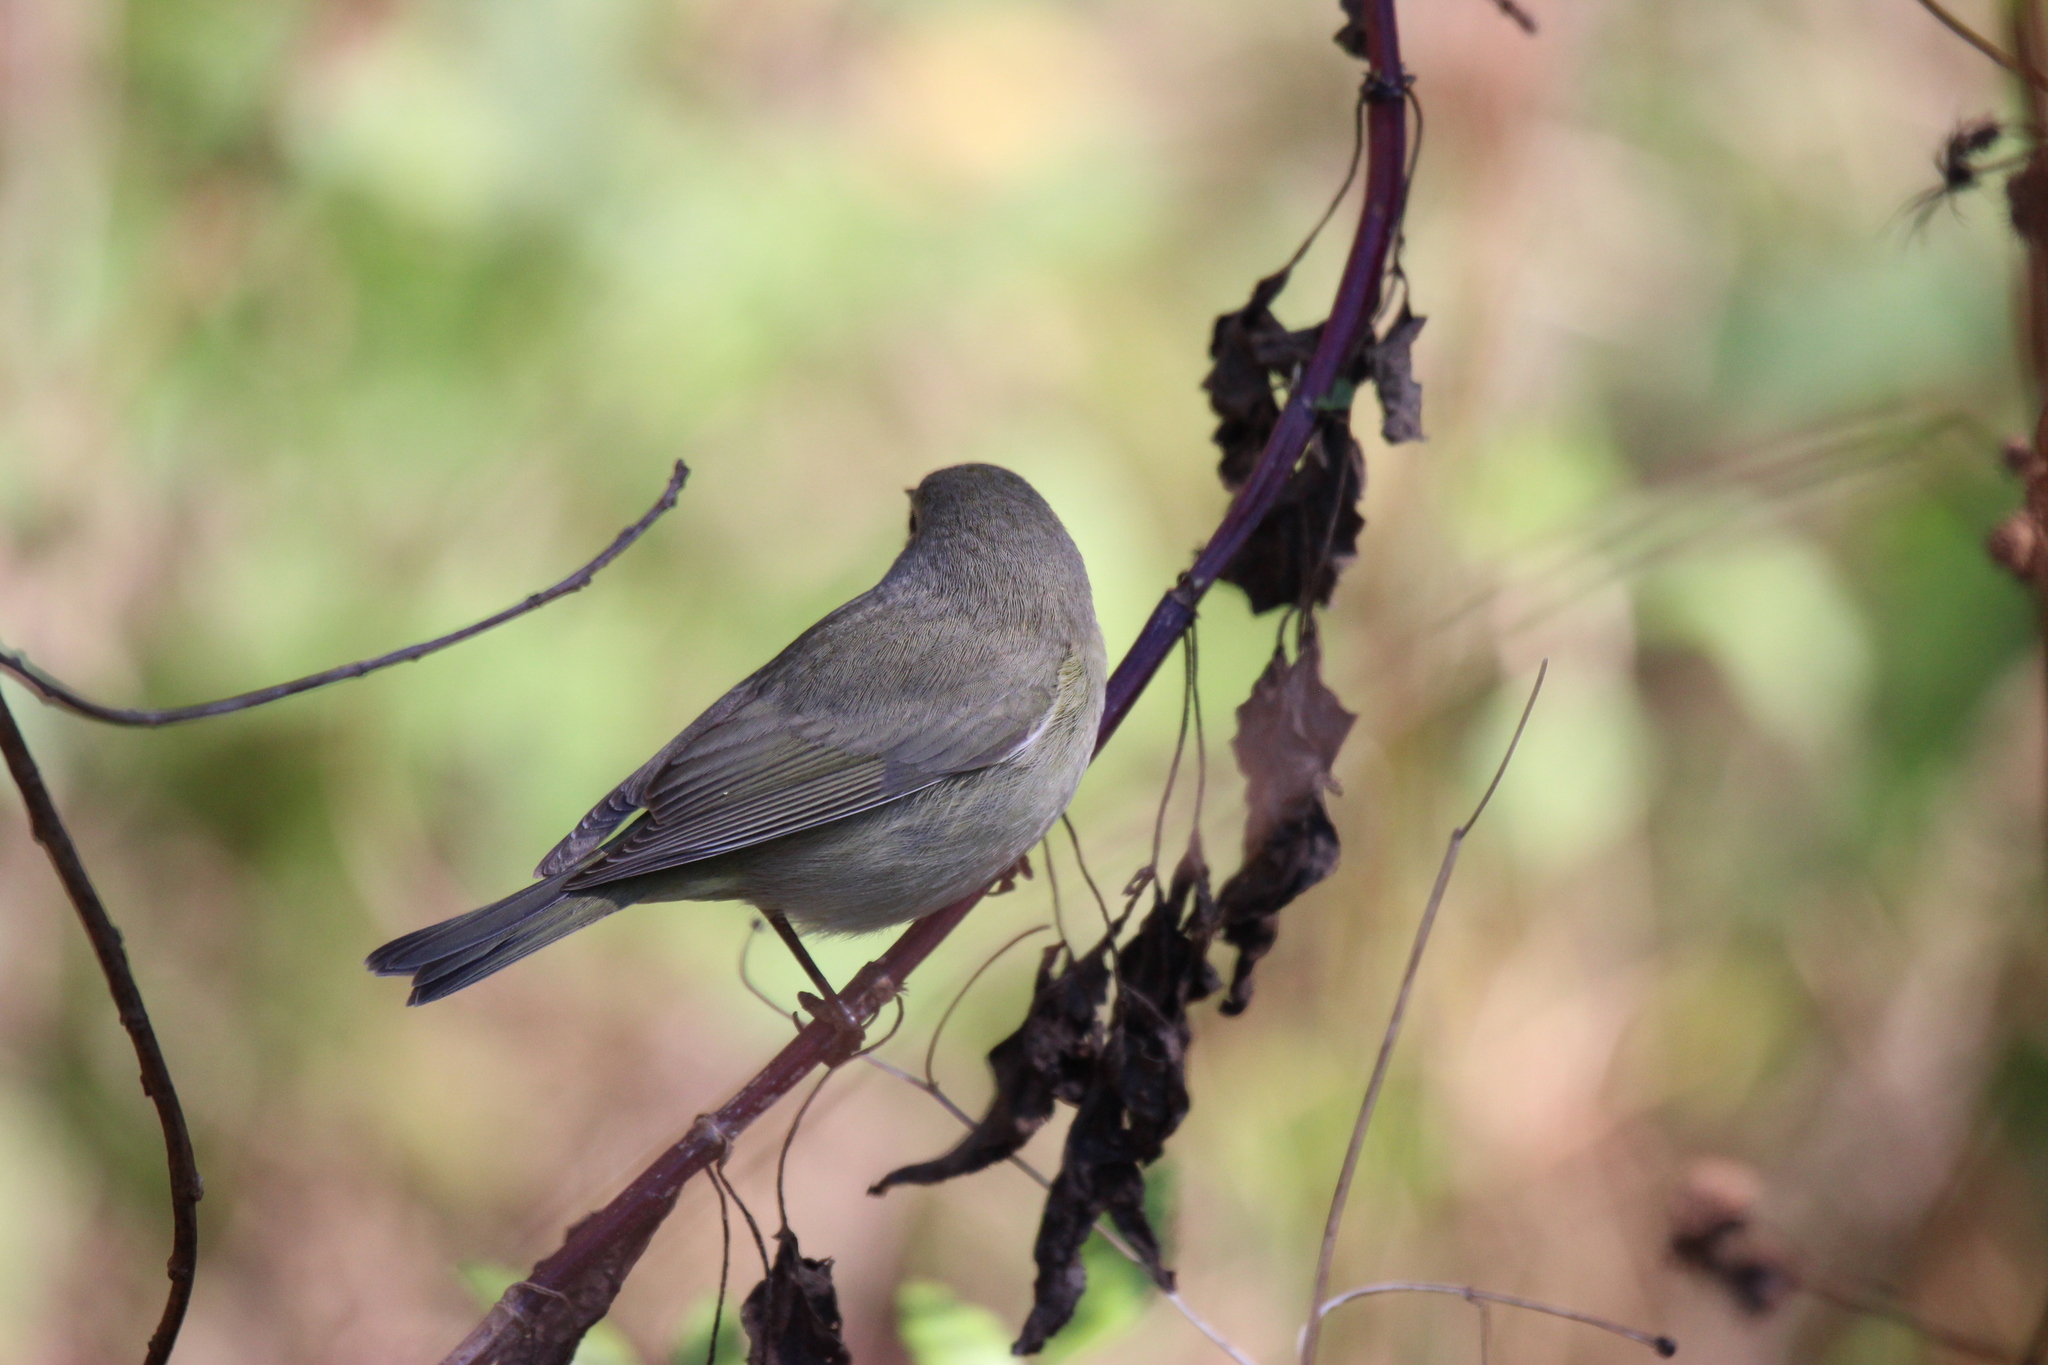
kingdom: Animalia
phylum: Chordata
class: Aves
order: Passeriformes
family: Parulidae
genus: Leiothlypis
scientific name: Leiothlypis celata
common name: Orange-crowned warbler
